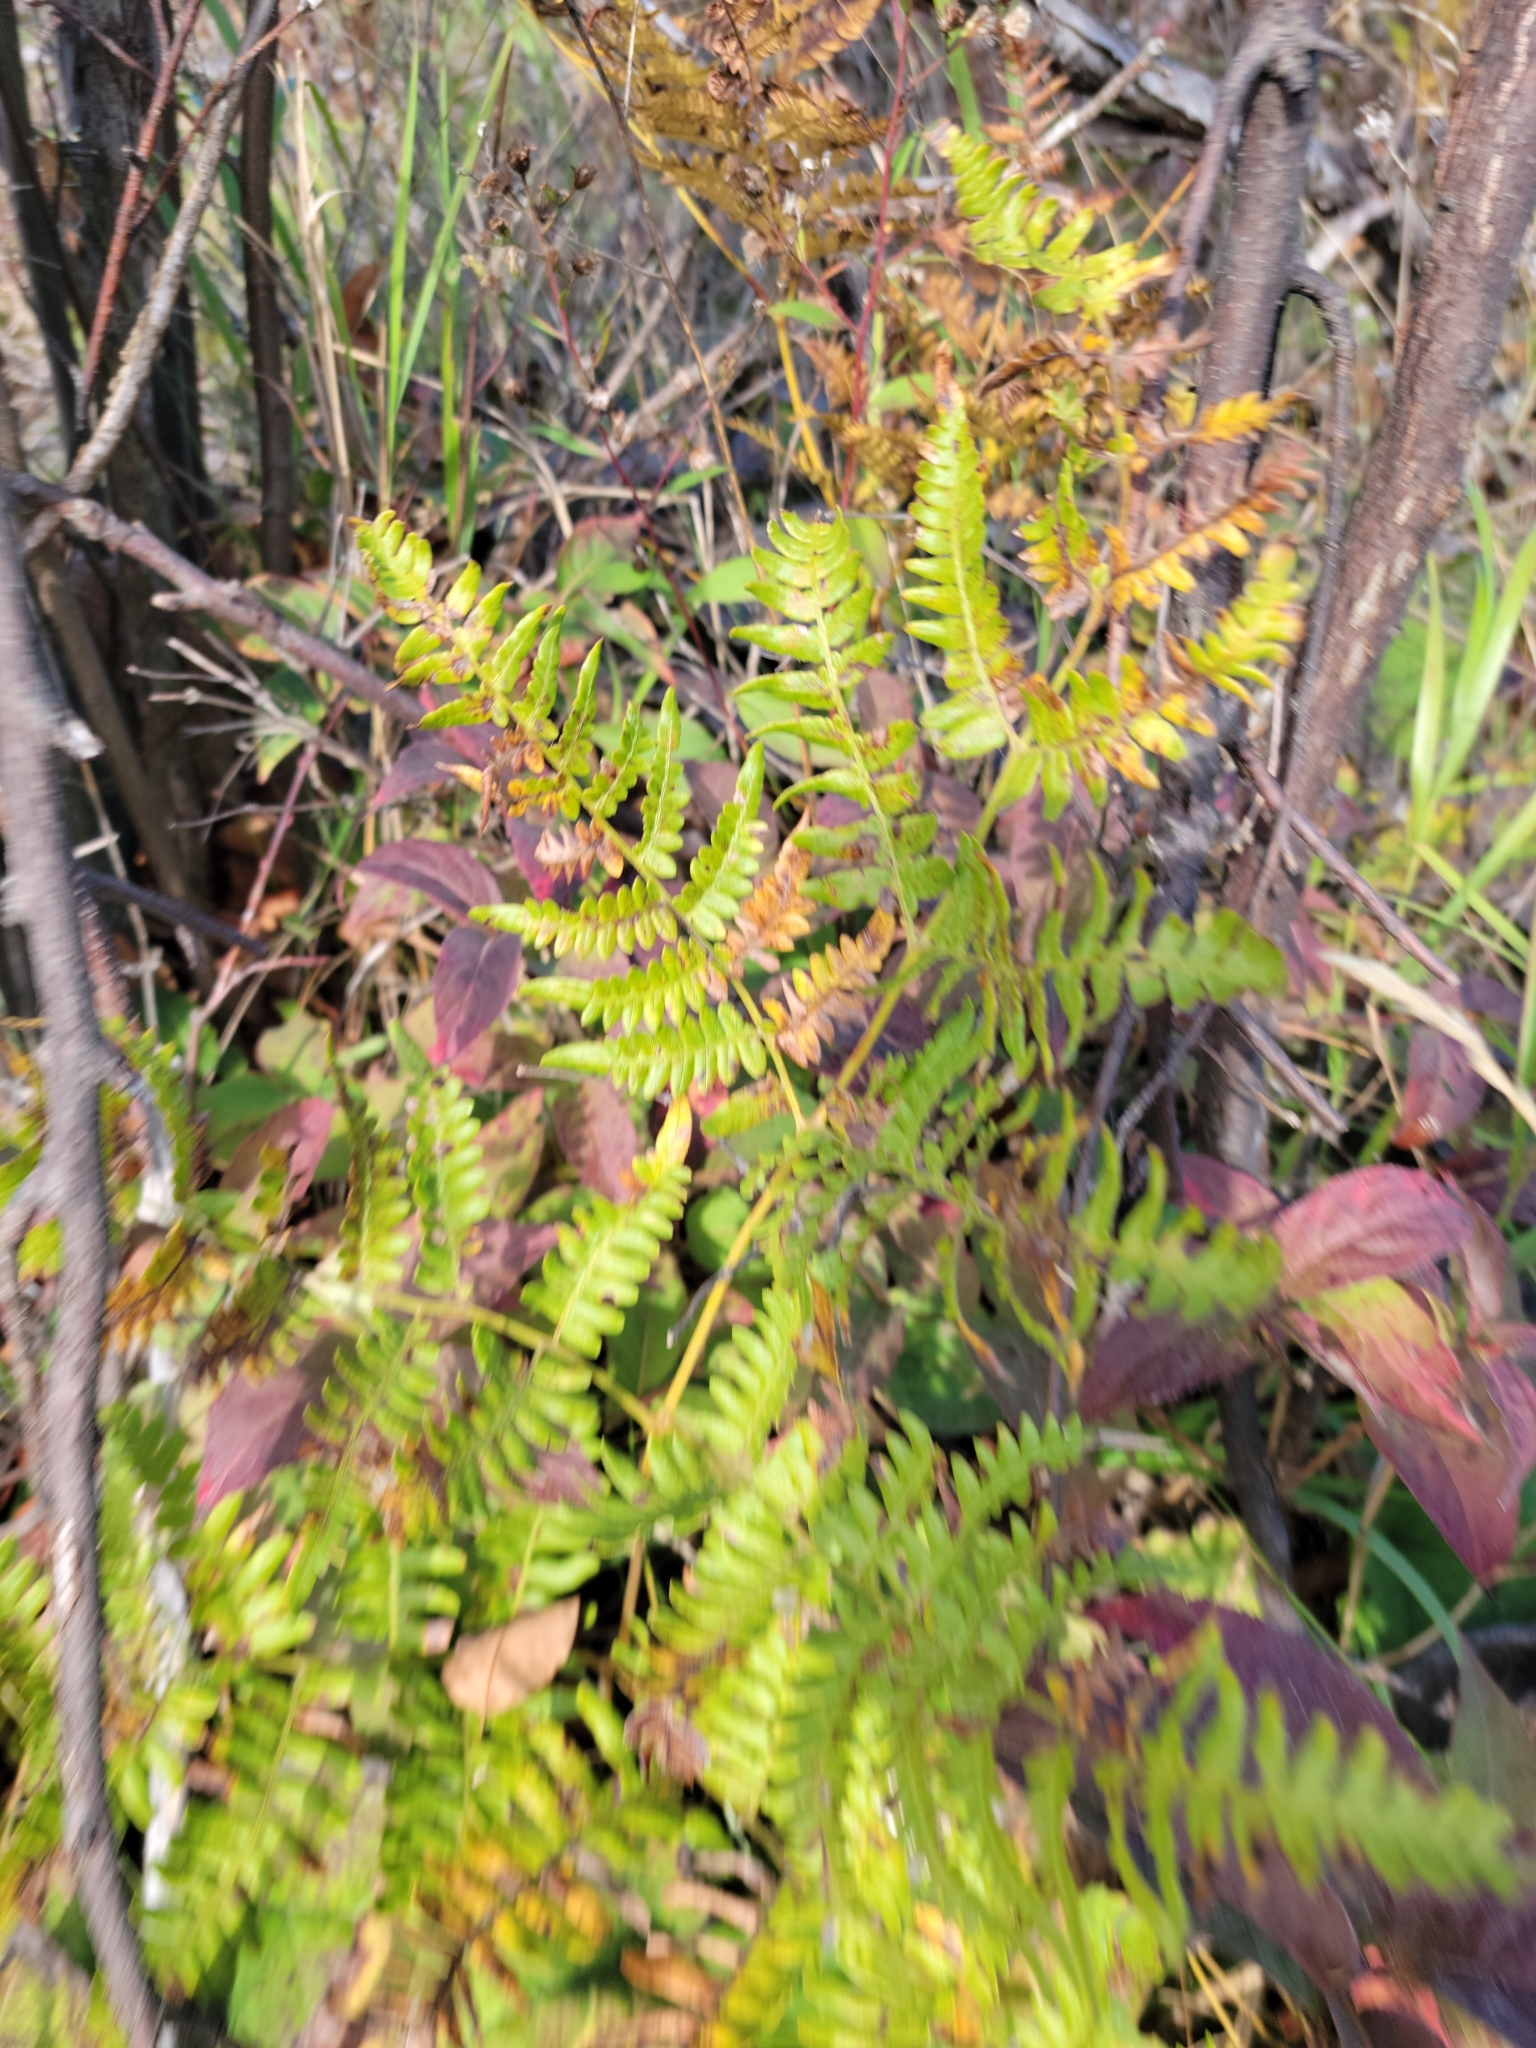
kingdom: Plantae
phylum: Tracheophyta
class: Polypodiopsida
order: Polypodiales
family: Dennstaedtiaceae
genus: Pteridium
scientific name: Pteridium aquilinum
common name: Bracken
